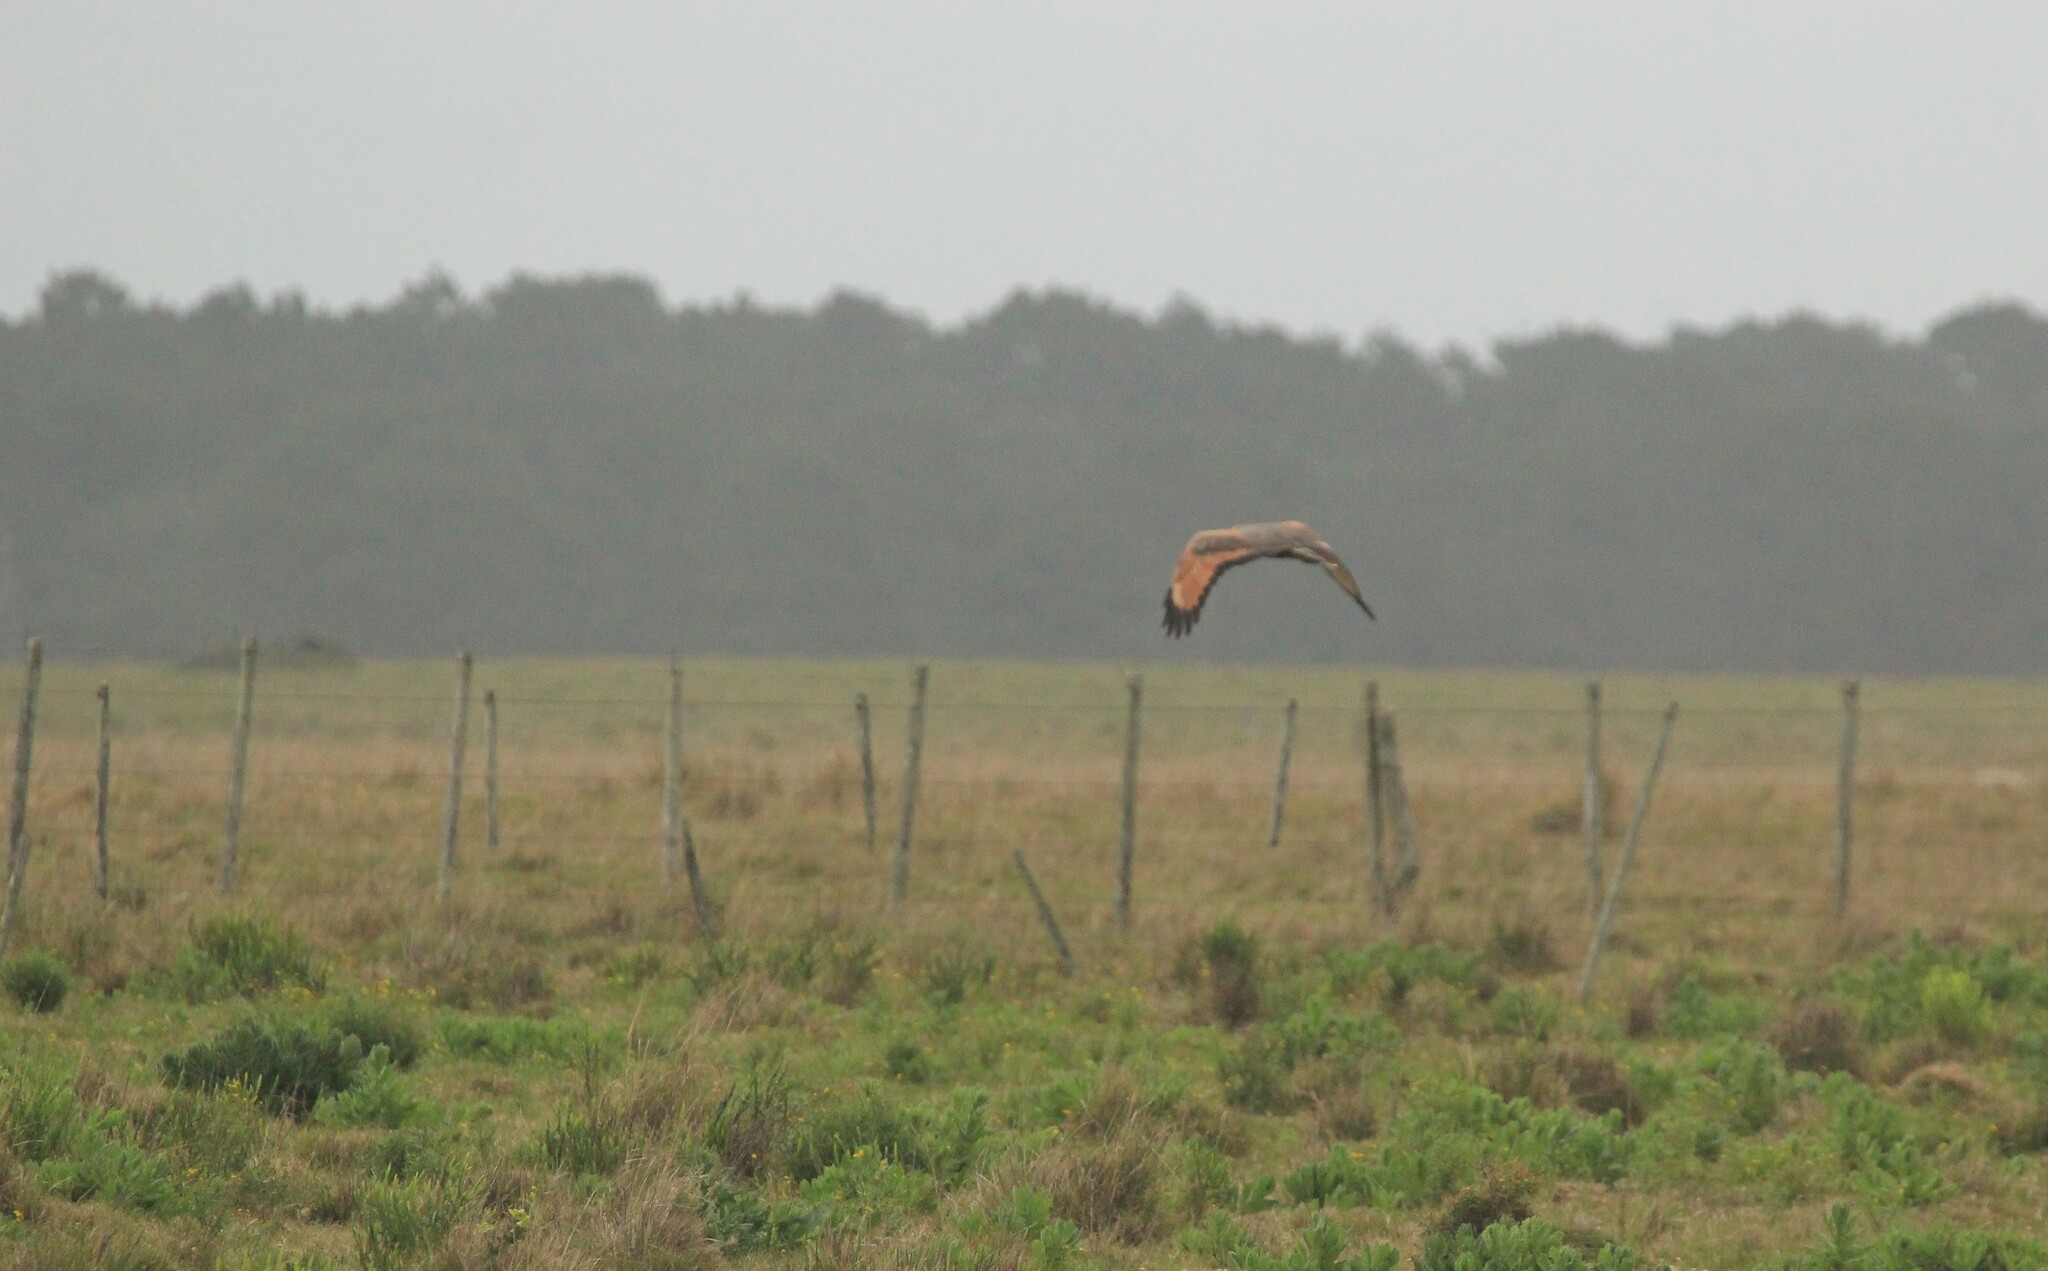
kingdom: Animalia
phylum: Chordata
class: Aves
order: Accipitriformes
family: Accipitridae
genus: Buteogallus
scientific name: Buteogallus meridionalis
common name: Savanna hawk
